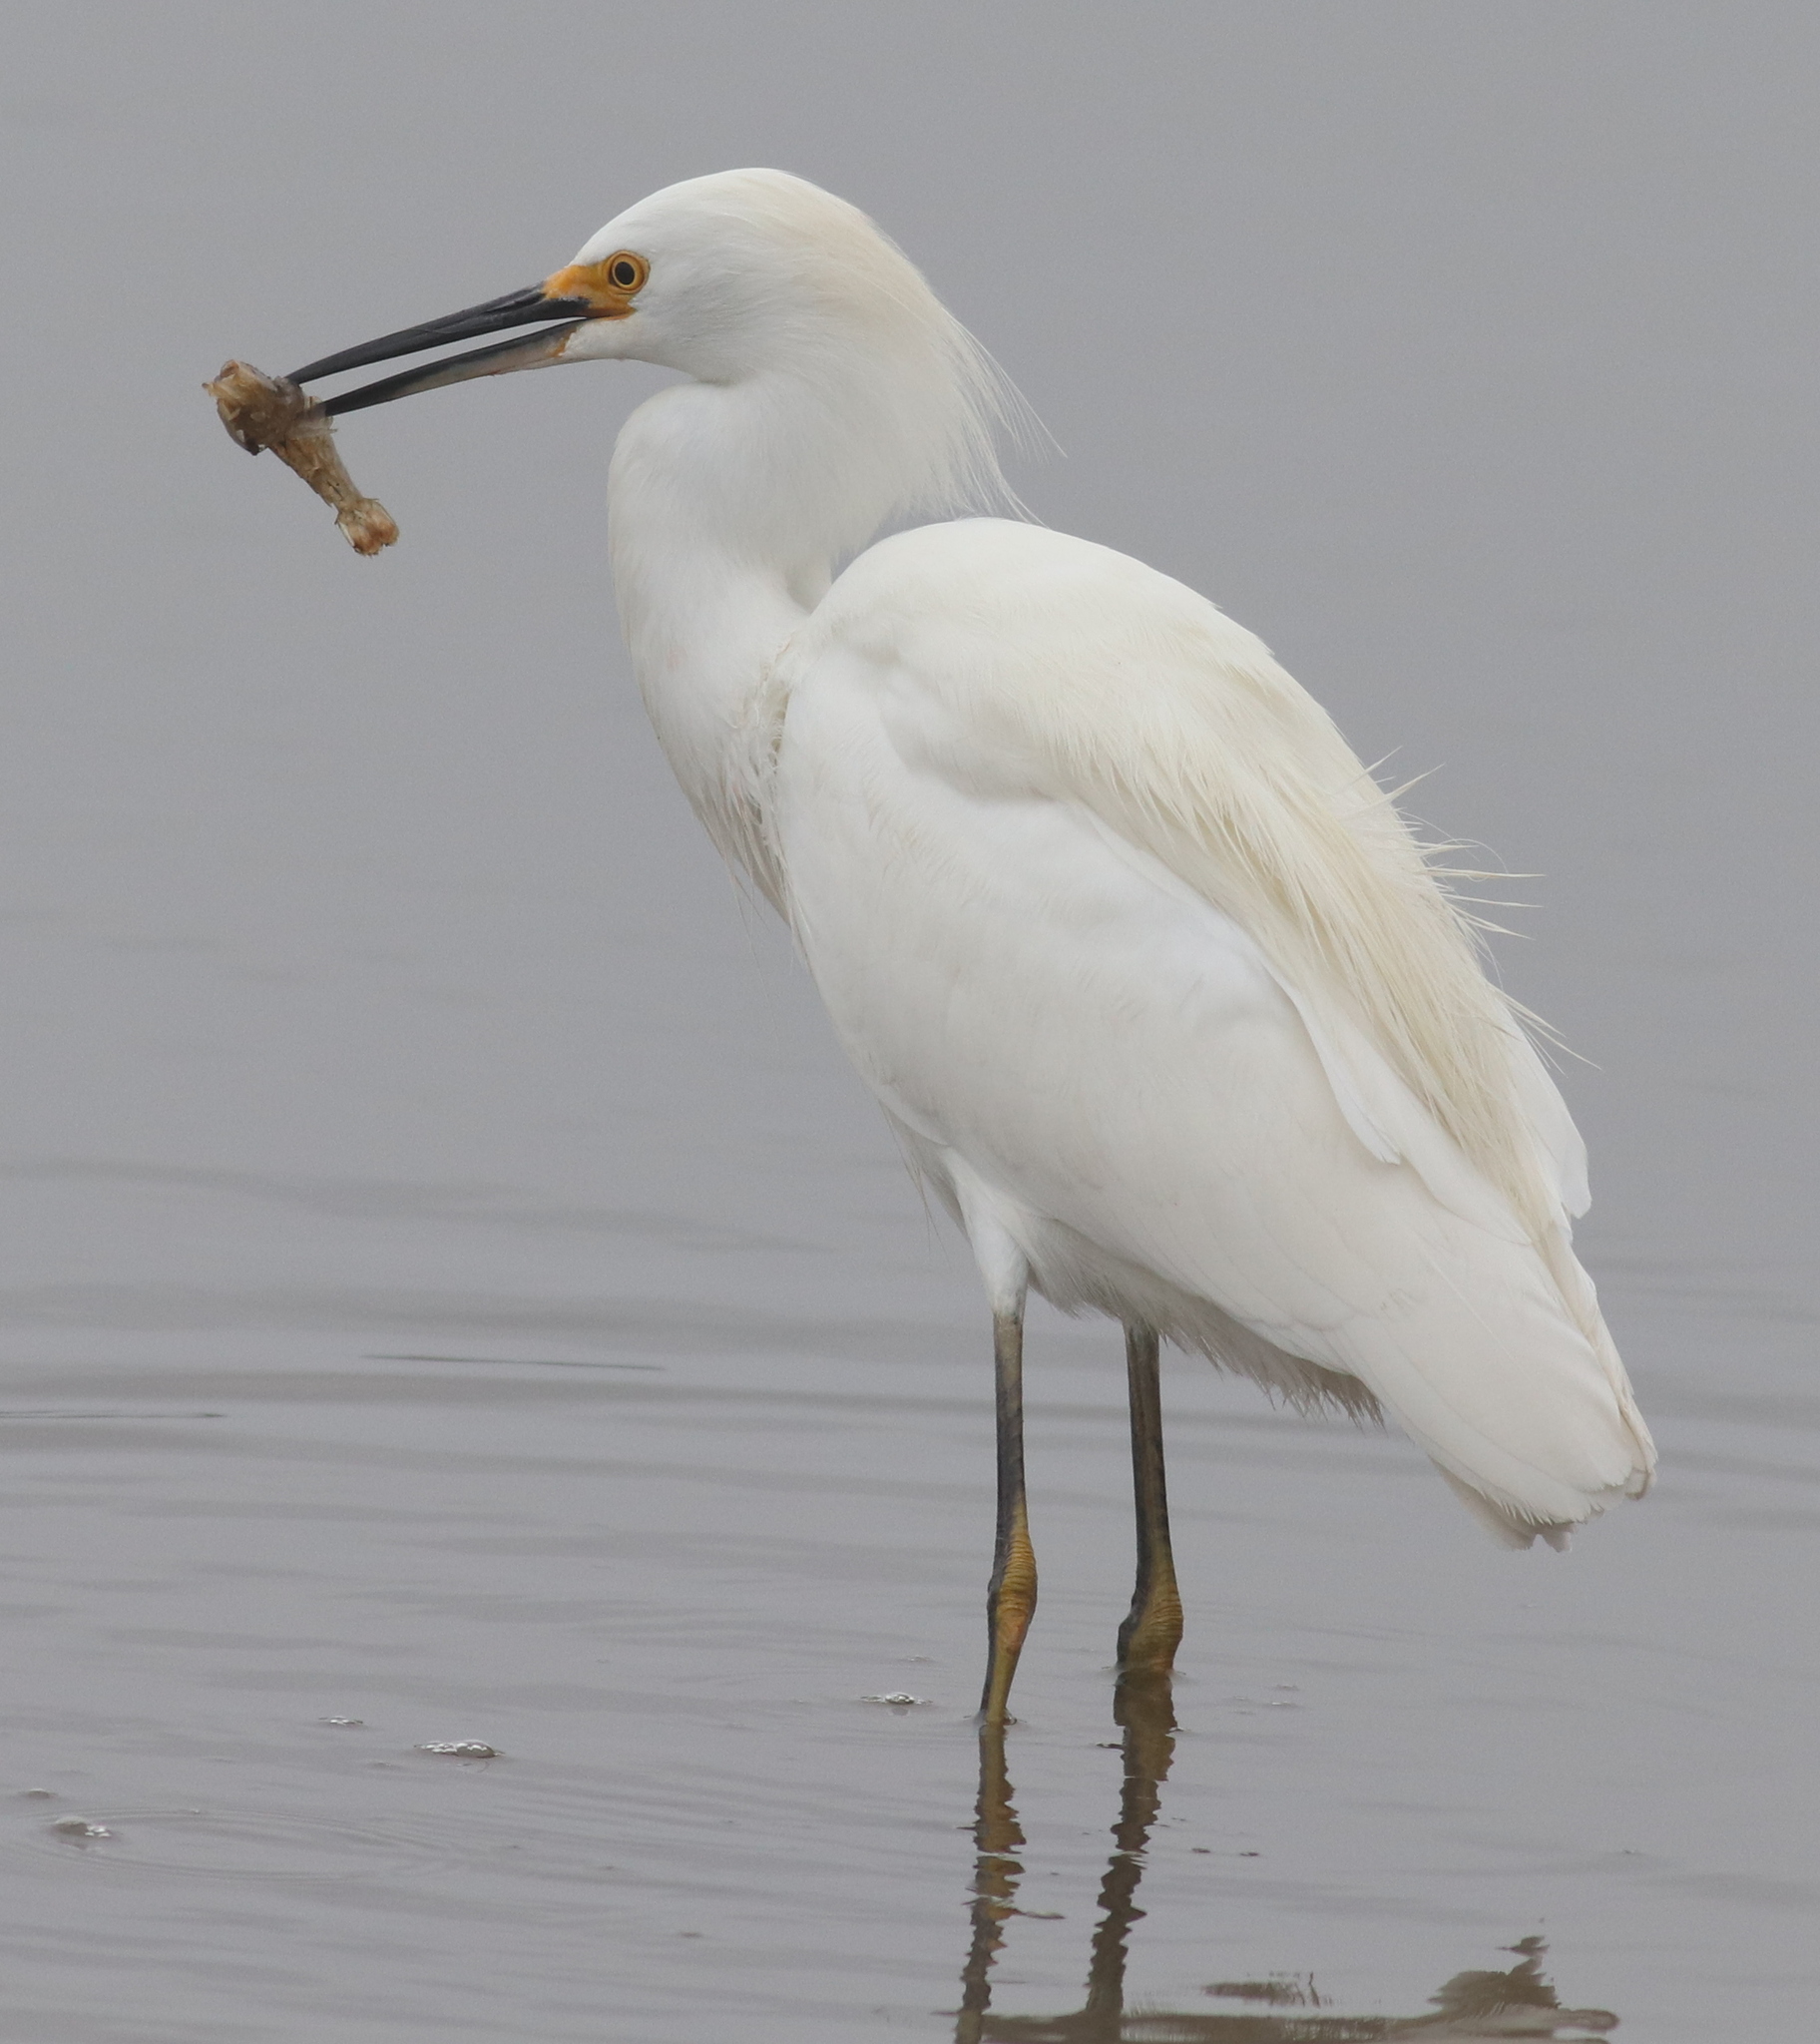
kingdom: Animalia
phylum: Chordata
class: Aves
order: Pelecaniformes
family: Ardeidae
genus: Egretta
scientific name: Egretta thula
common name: Snowy egret
